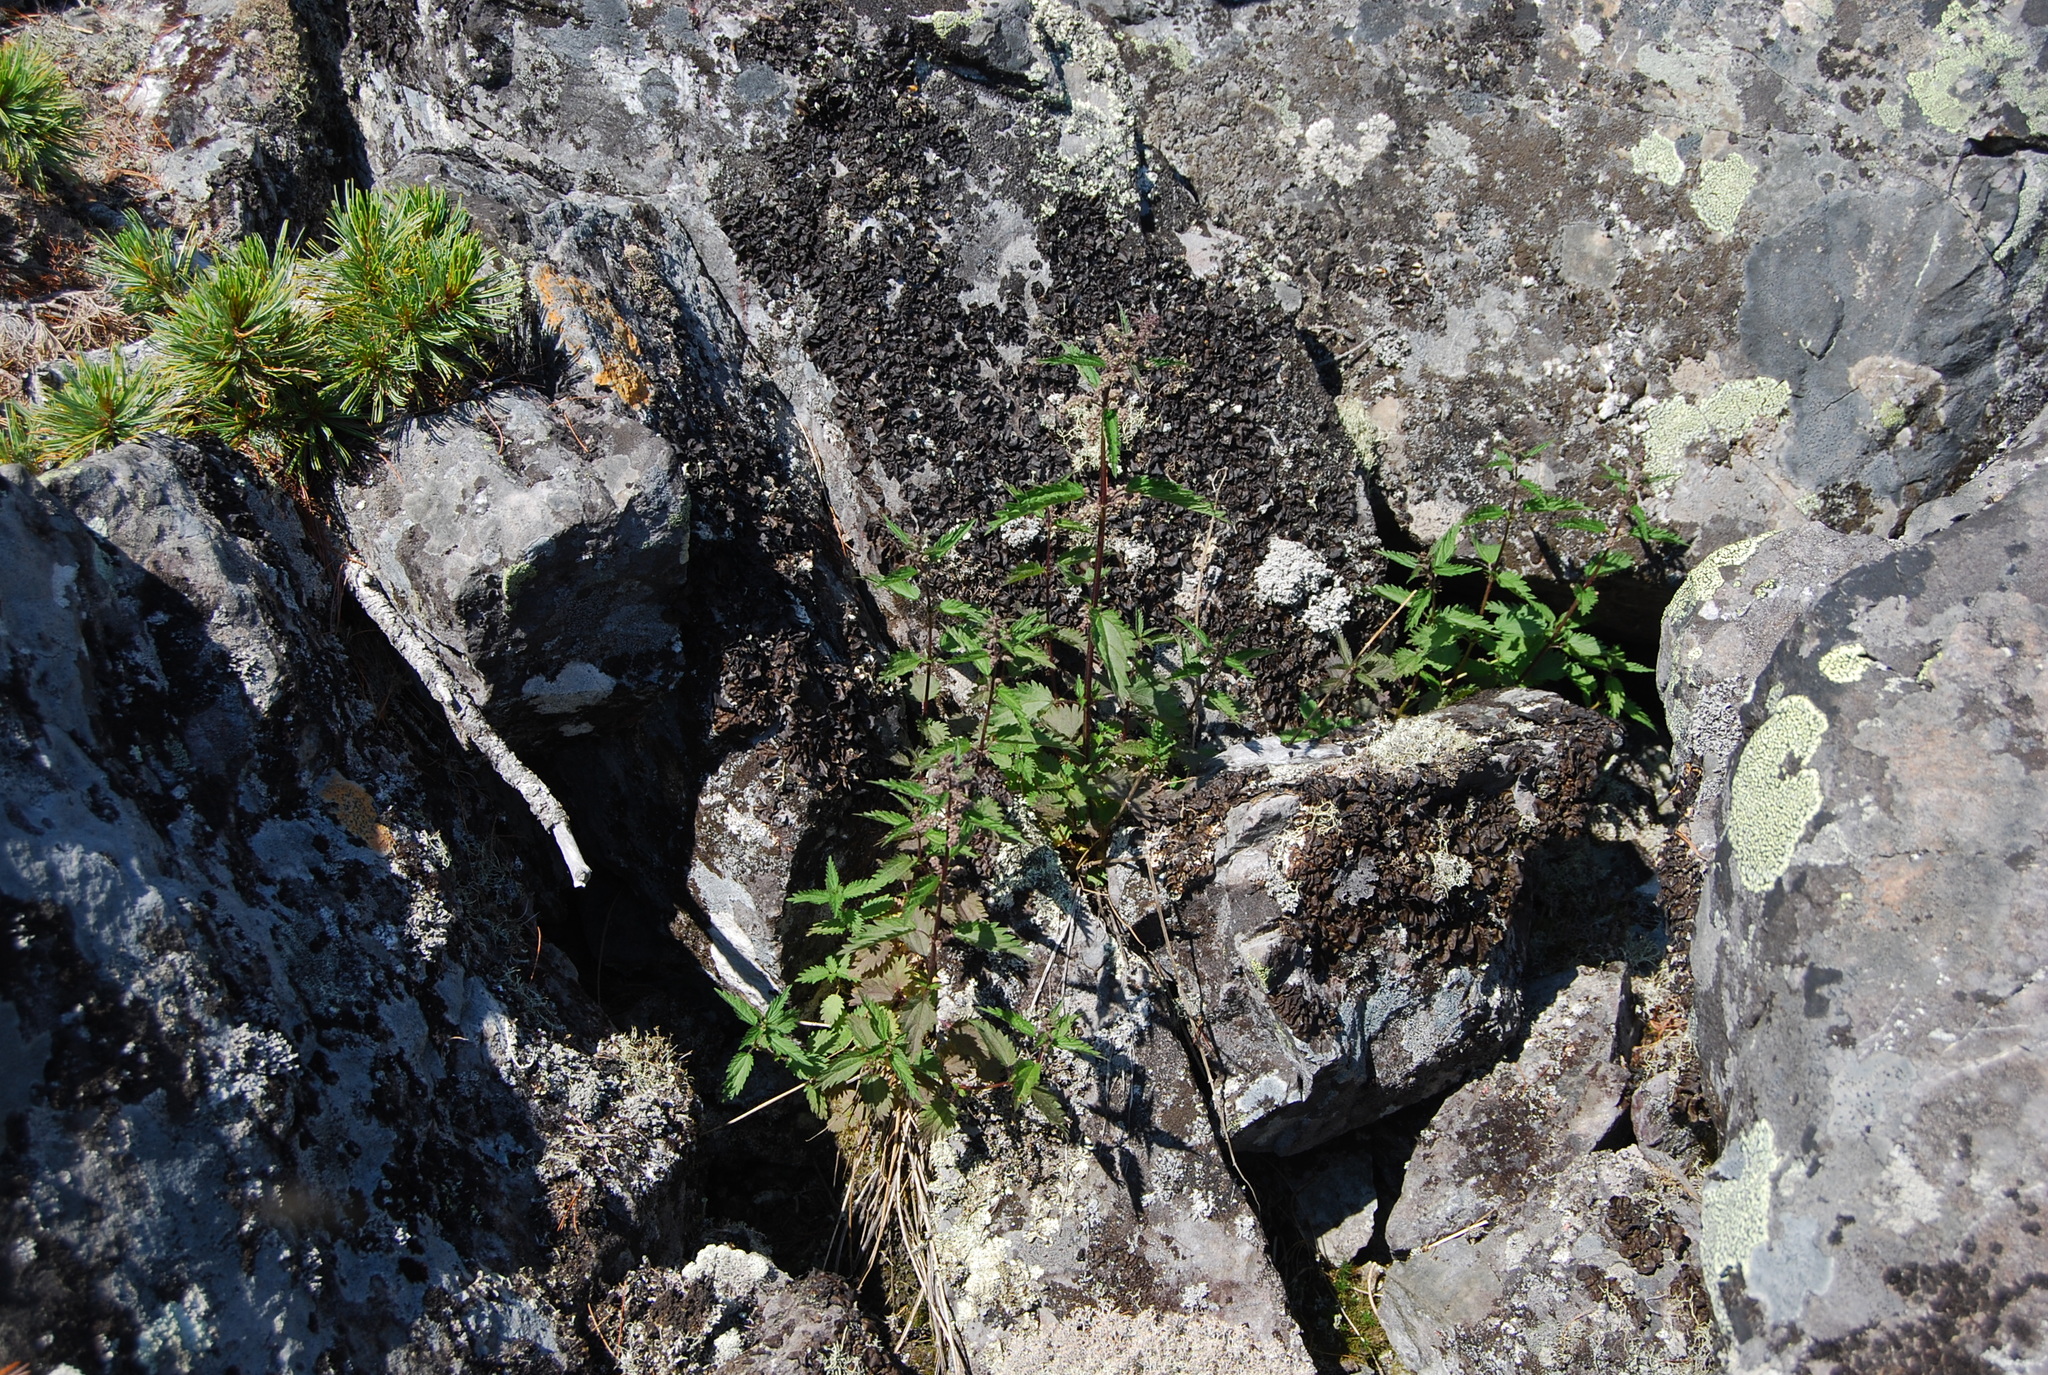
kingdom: Plantae
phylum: Tracheophyta
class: Magnoliopsida
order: Rosales
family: Urticaceae
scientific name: Urticaceae
